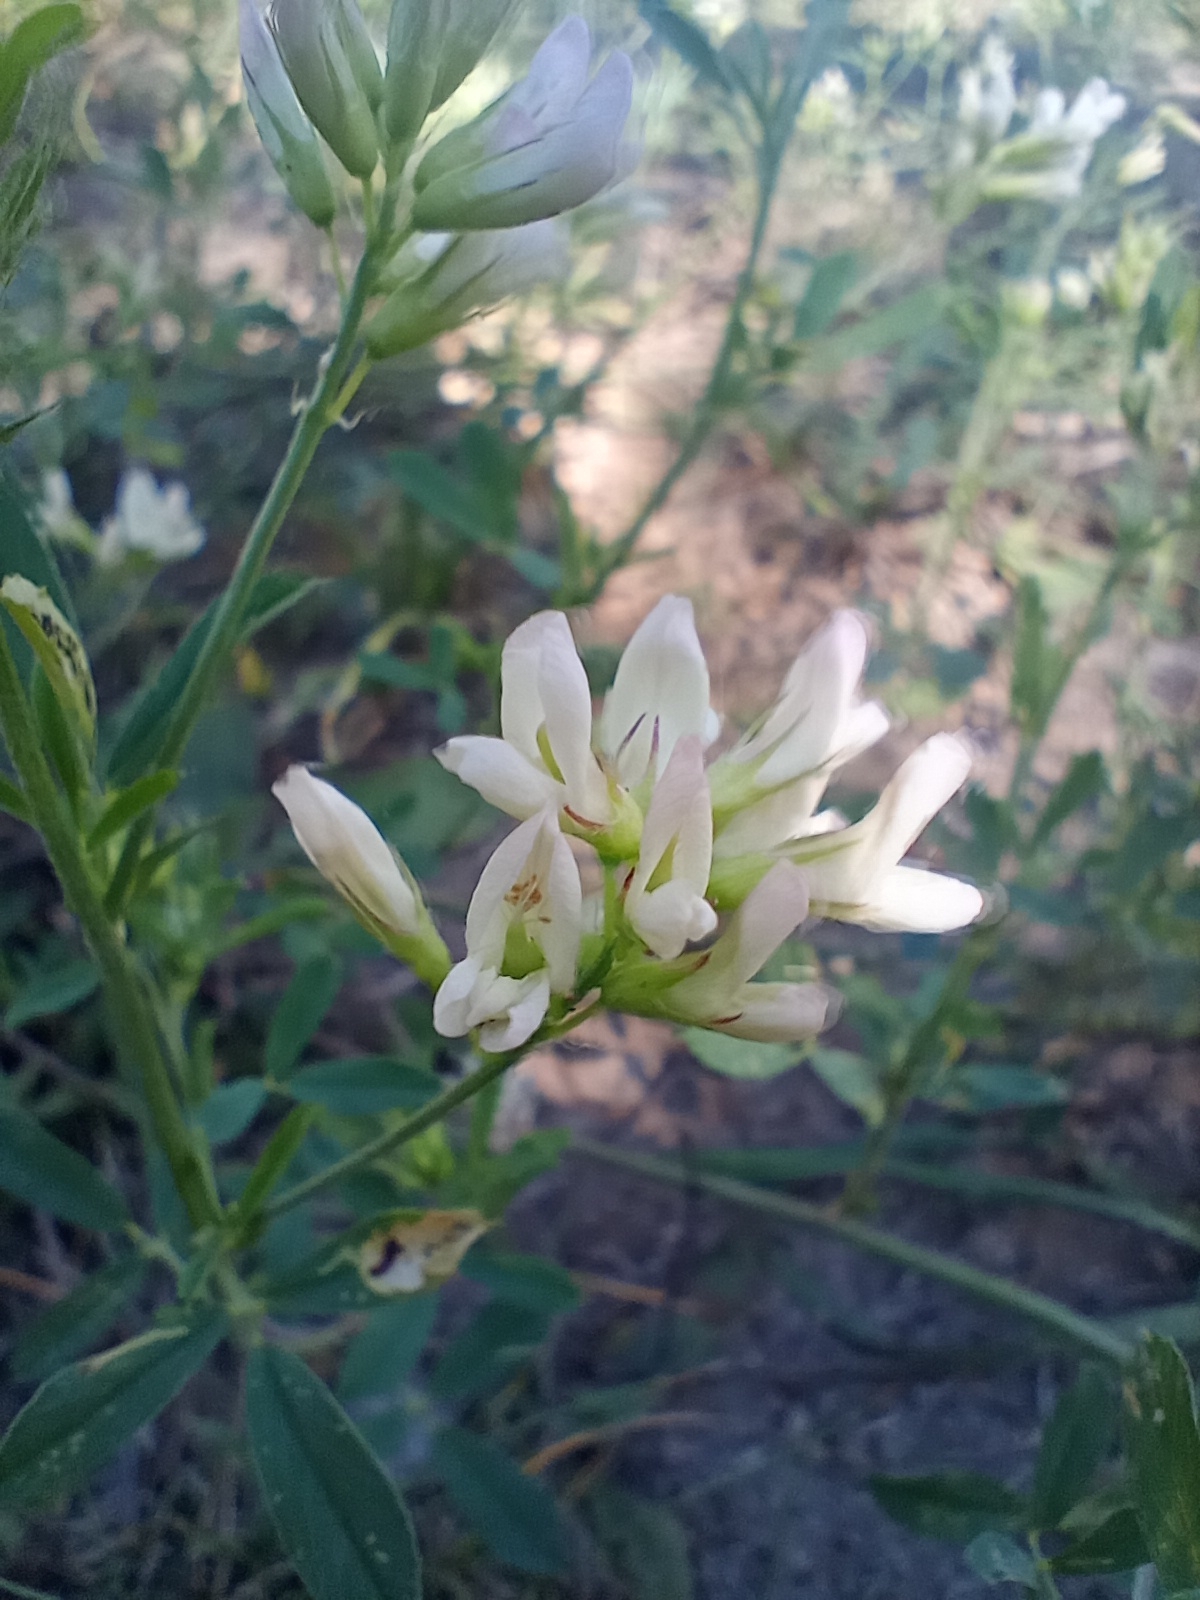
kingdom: Plantae
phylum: Tracheophyta
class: Magnoliopsida
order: Fabales
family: Fabaceae
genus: Medicago
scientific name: Medicago varia
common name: Sand lucerne
